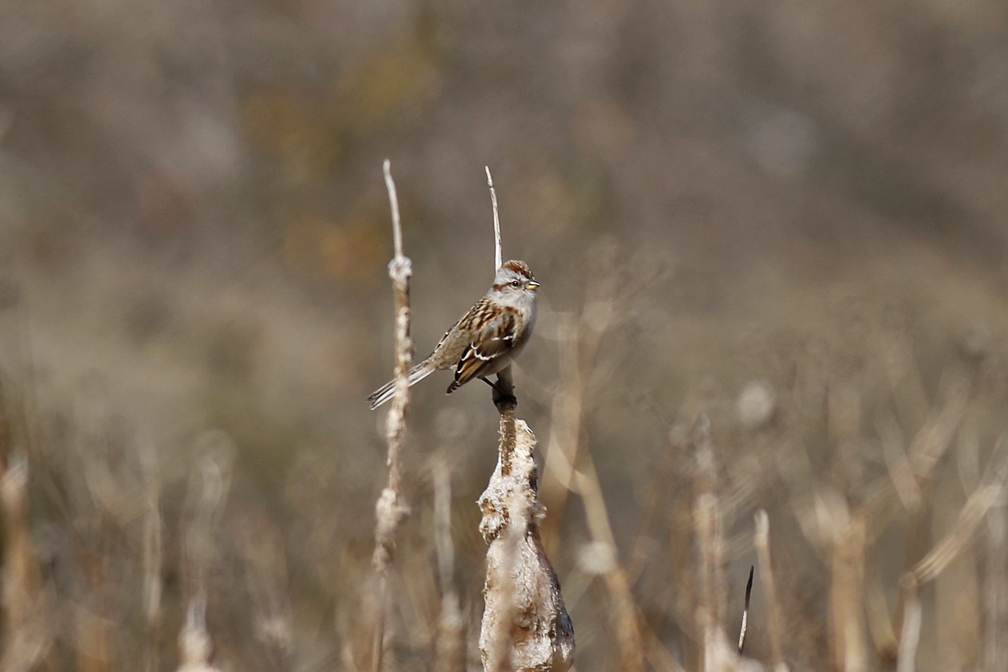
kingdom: Animalia
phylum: Chordata
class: Aves
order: Passeriformes
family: Passerellidae
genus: Spizelloides
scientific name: Spizelloides arborea
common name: American tree sparrow
